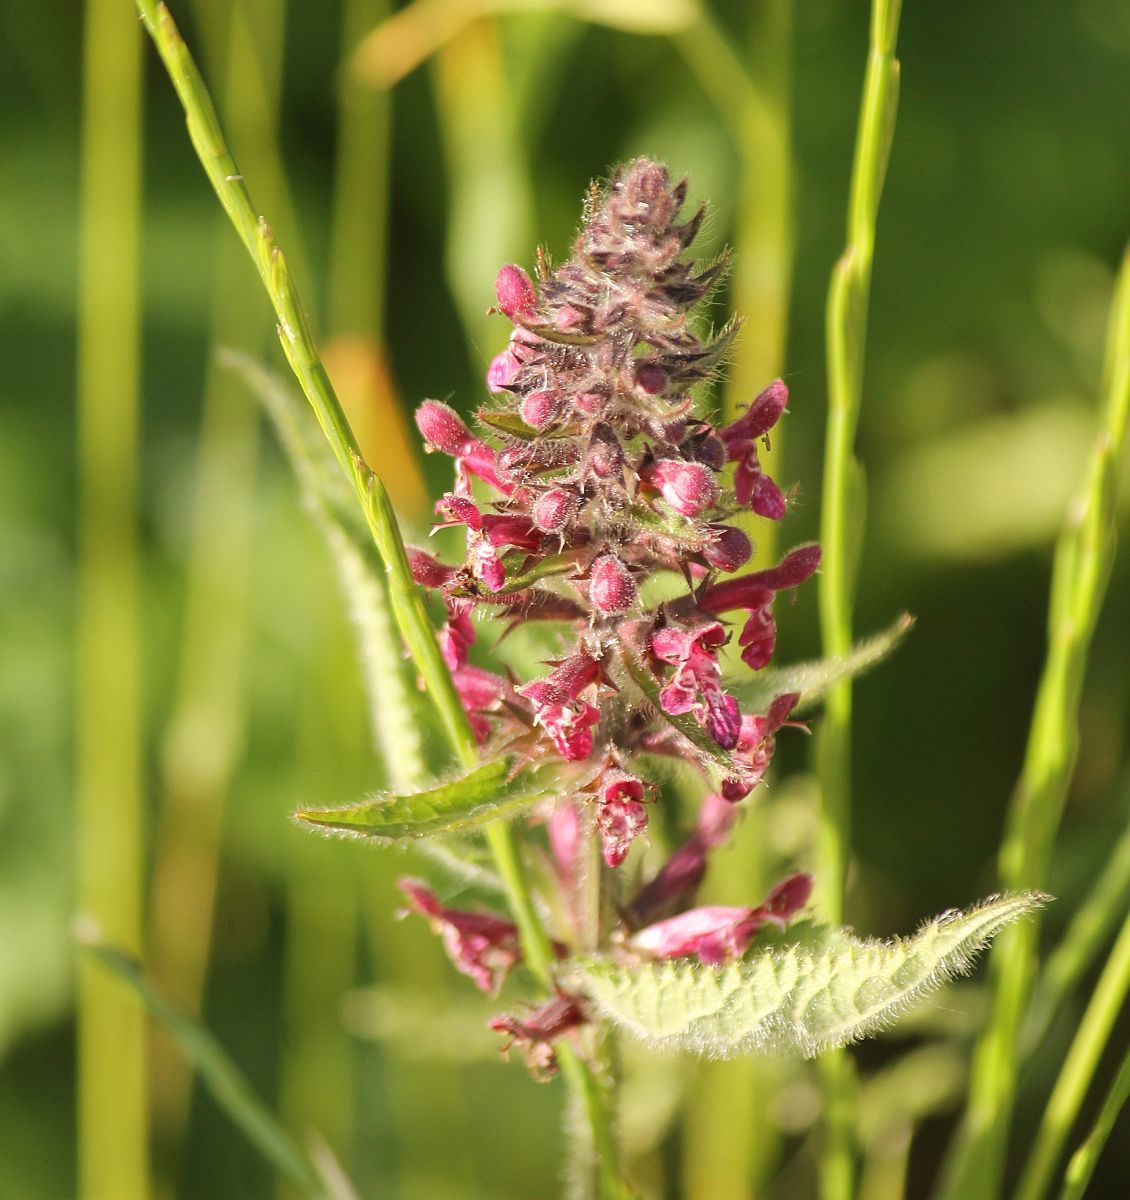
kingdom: Plantae
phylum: Tracheophyta
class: Magnoliopsida
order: Lamiales
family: Lamiaceae
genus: Stachys
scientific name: Stachys sylvatica
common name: Hedge woundwort
